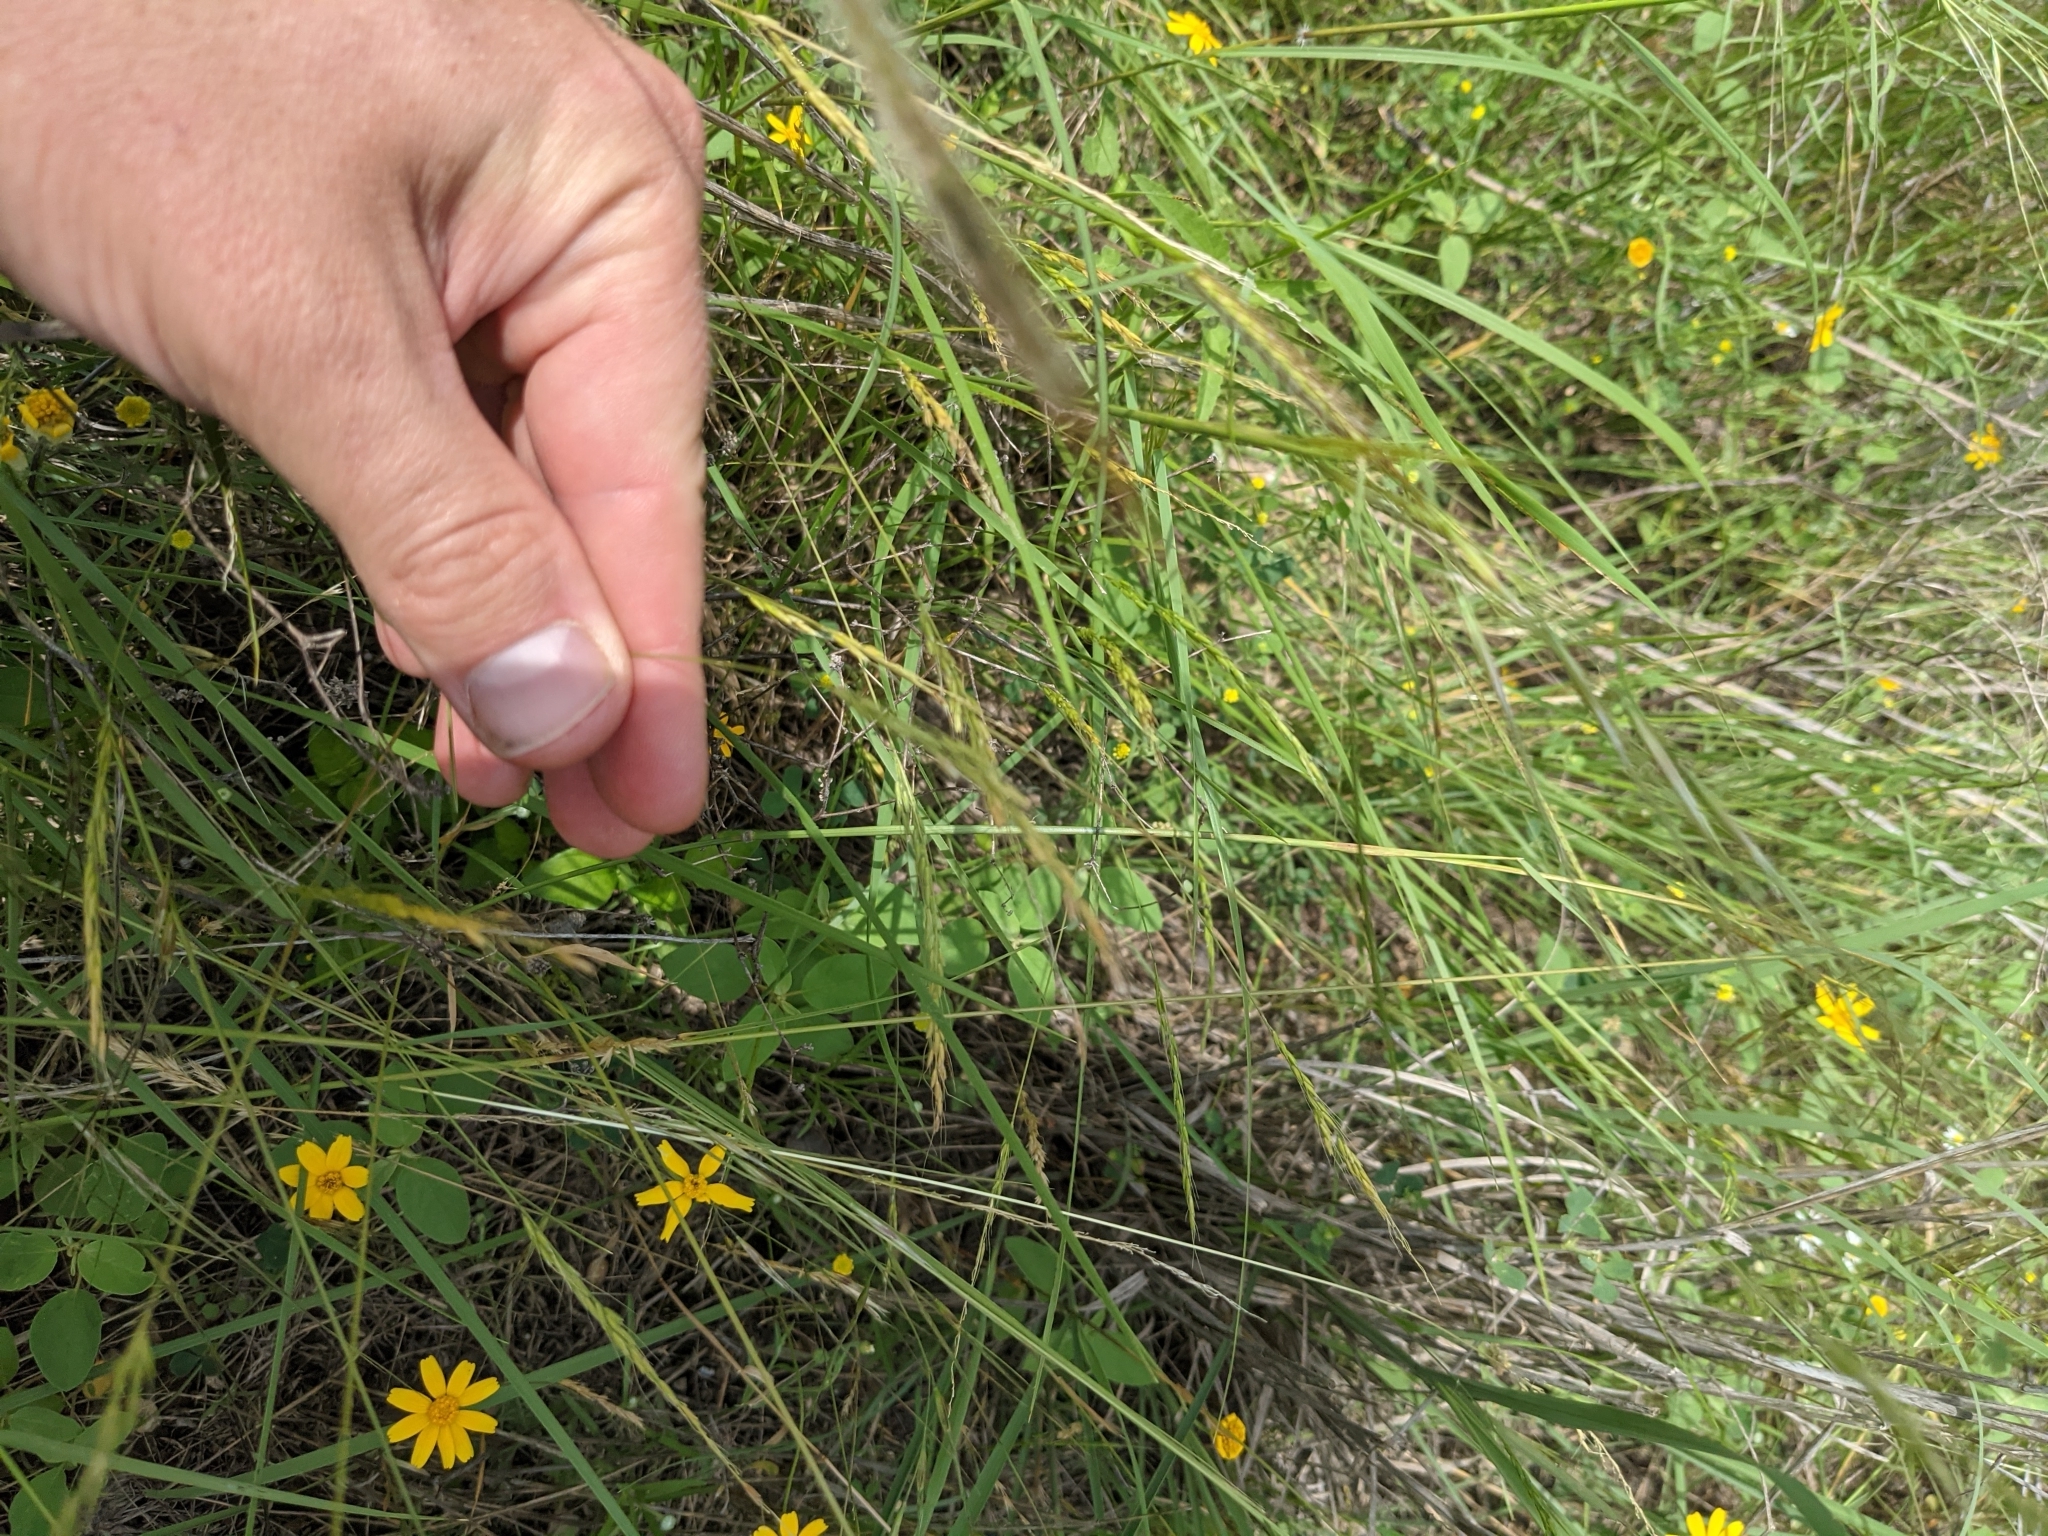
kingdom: Plantae
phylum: Tracheophyta
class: Liliopsida
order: Poales
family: Poaceae
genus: Limnodea
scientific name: Limnodea arkansana
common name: Ozark-grass
